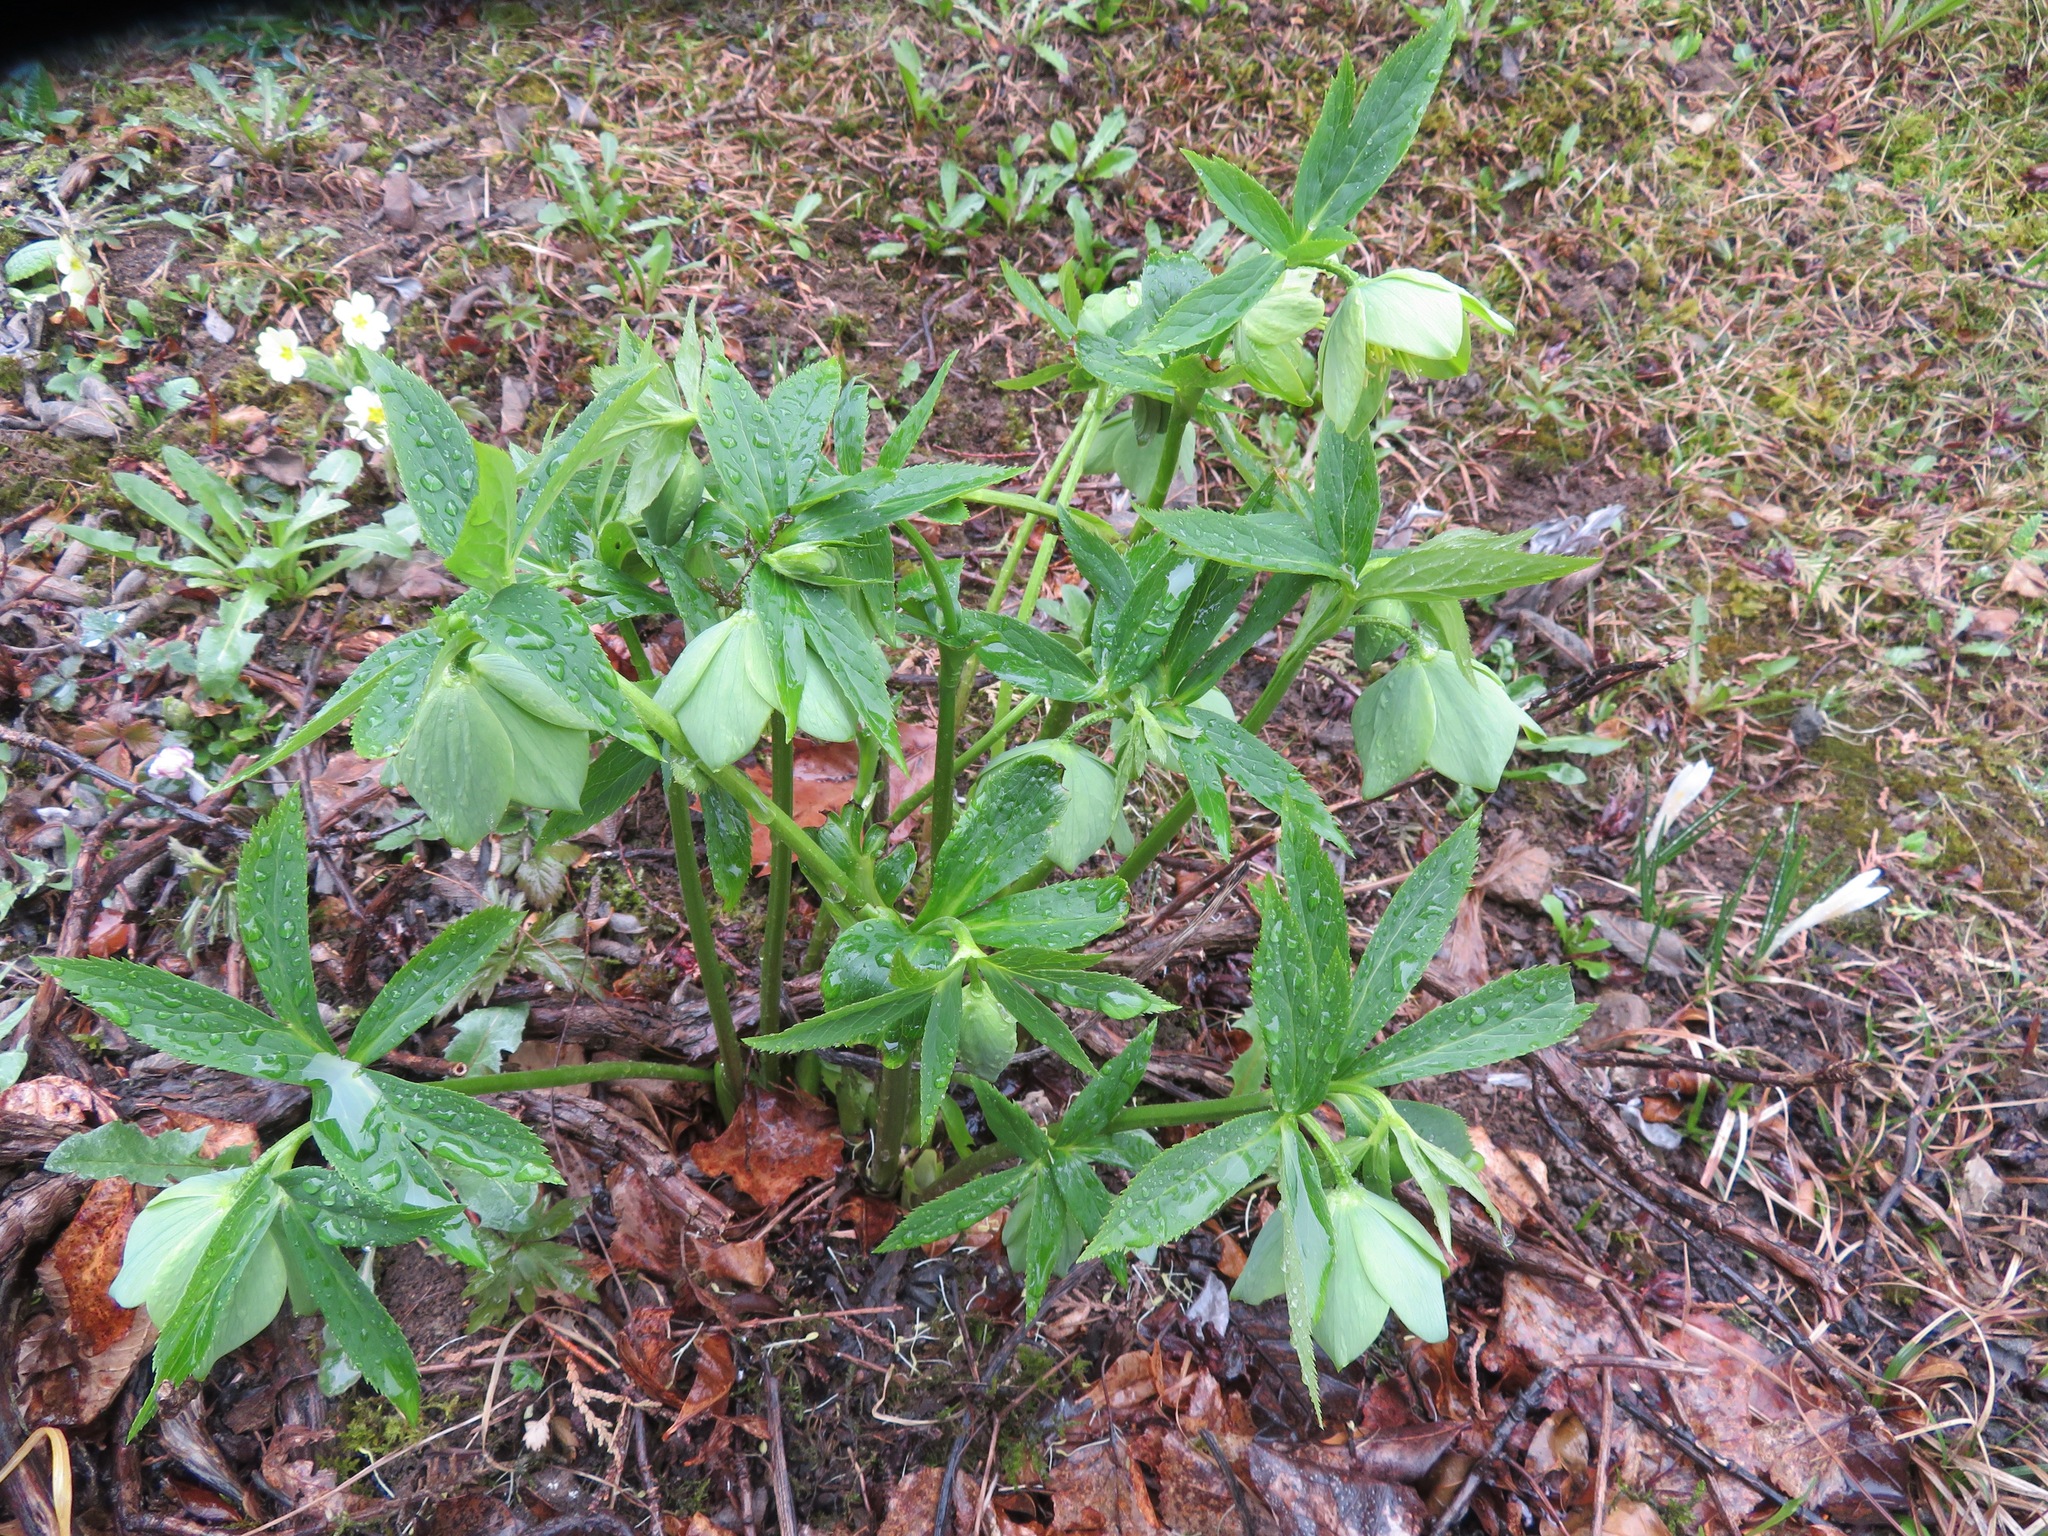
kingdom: Plantae
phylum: Tracheophyta
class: Magnoliopsida
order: Ranunculales
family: Ranunculaceae
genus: Helleborus
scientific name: Helleborus viridis
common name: Green hellebore
